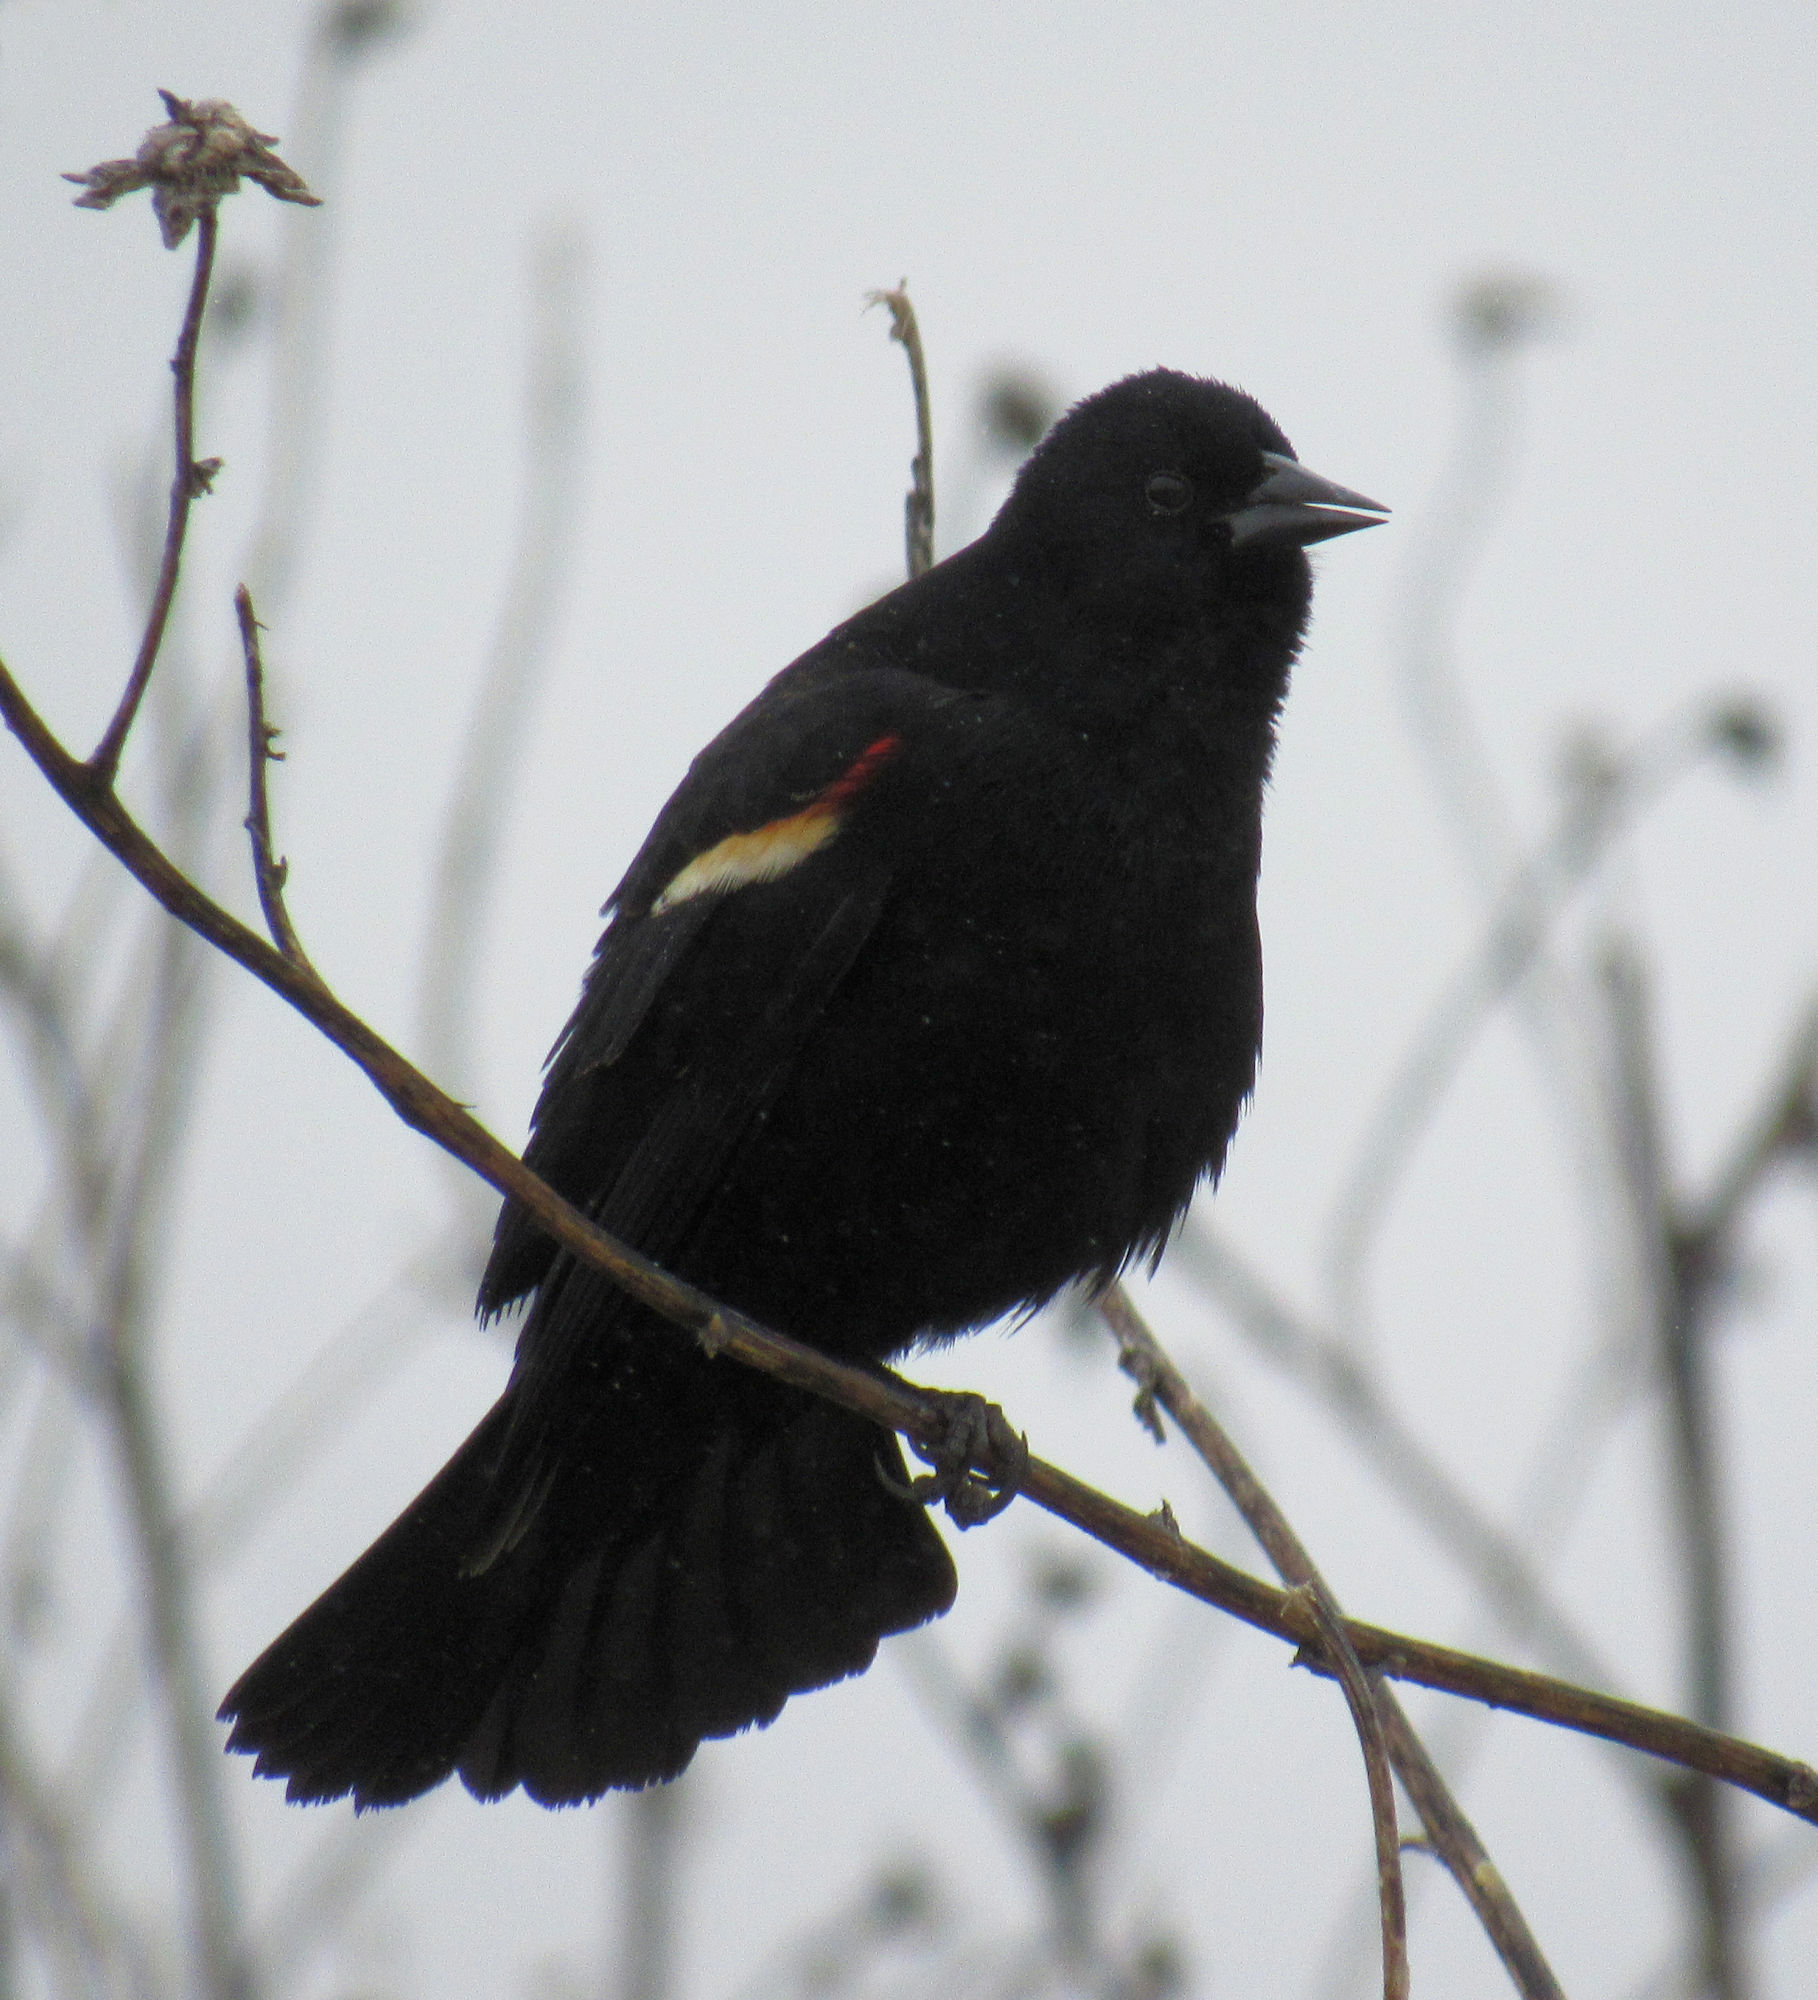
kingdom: Animalia
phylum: Chordata
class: Aves
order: Passeriformes
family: Icteridae
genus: Agelaius
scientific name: Agelaius phoeniceus
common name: Red-winged blackbird
